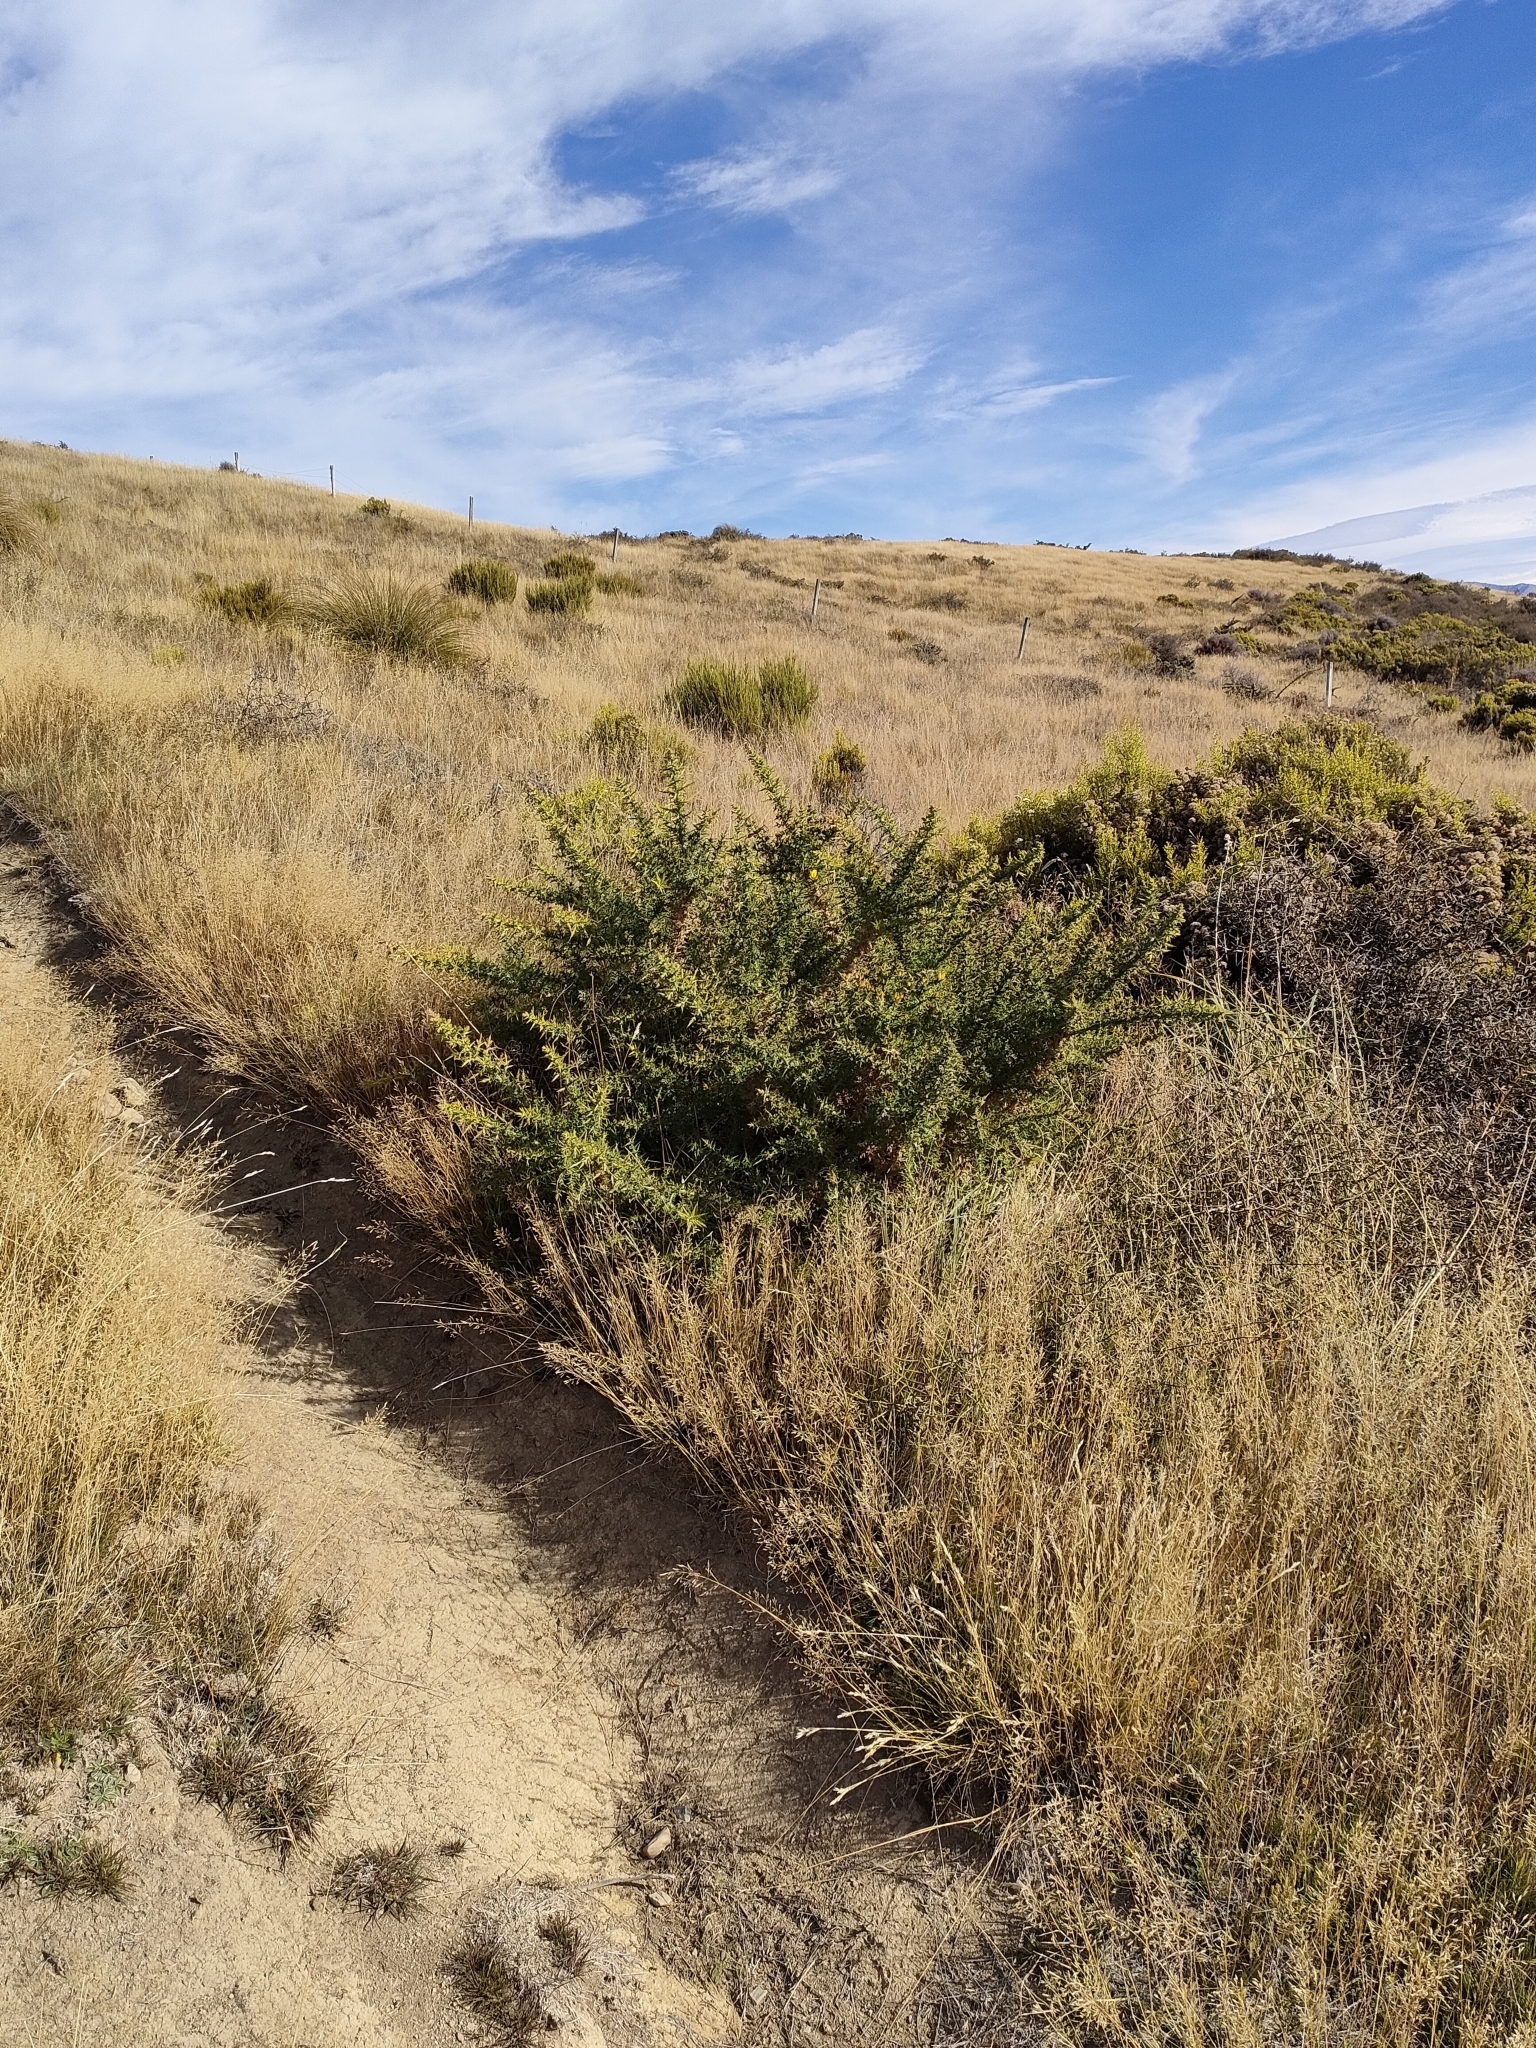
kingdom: Plantae
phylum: Tracheophyta
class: Magnoliopsida
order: Fabales
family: Fabaceae
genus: Ulex
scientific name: Ulex europaeus
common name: Common gorse
